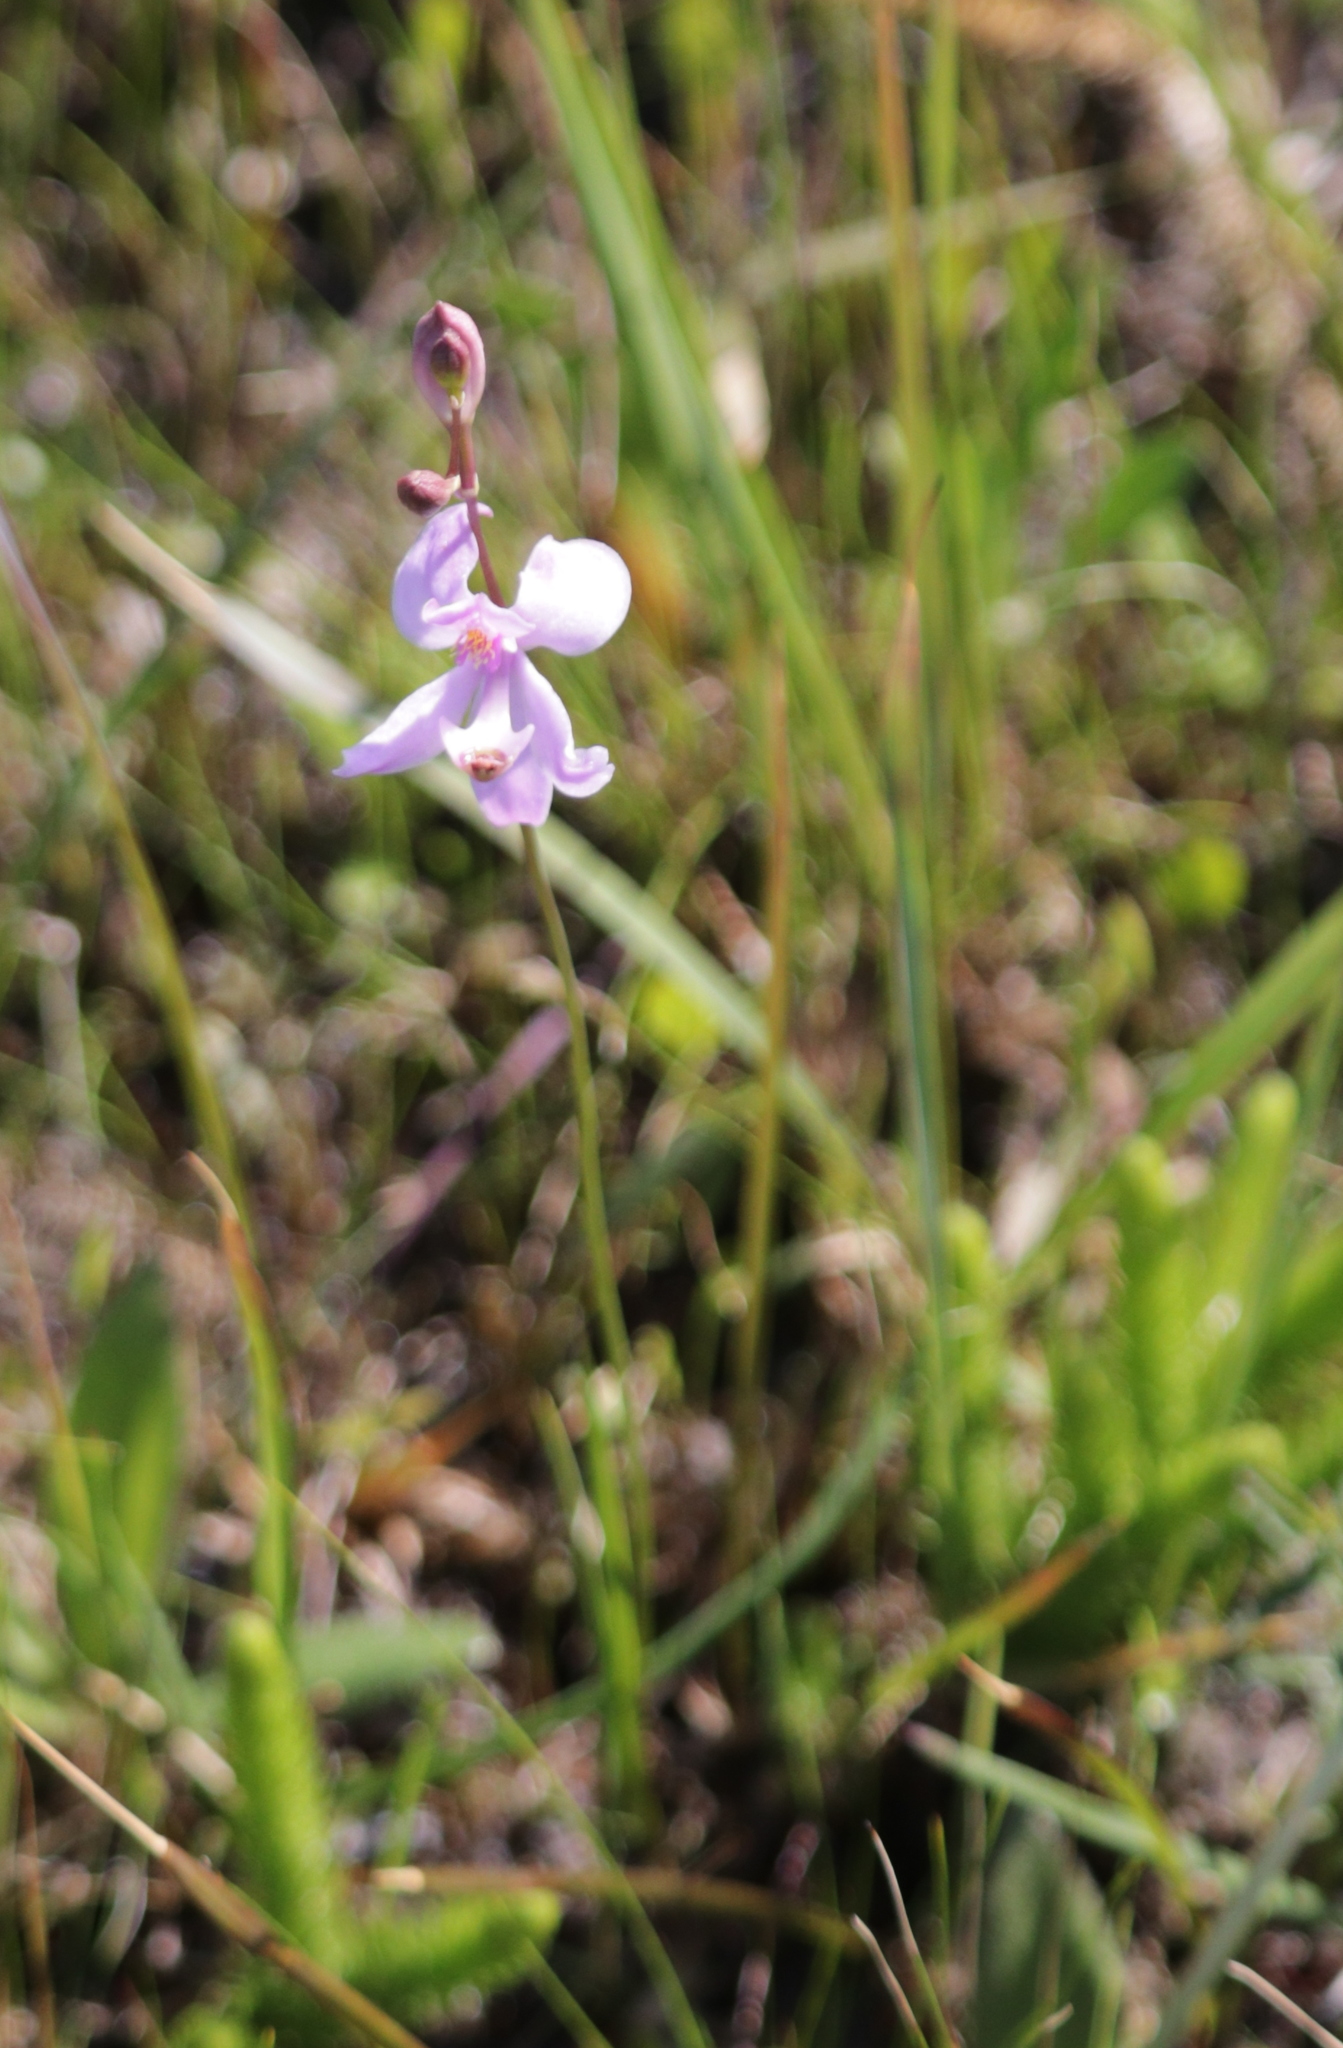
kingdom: Plantae
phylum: Tracheophyta
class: Liliopsida
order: Asparagales
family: Orchidaceae
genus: Calopogon
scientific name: Calopogon pallidus
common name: Pale grasspink
